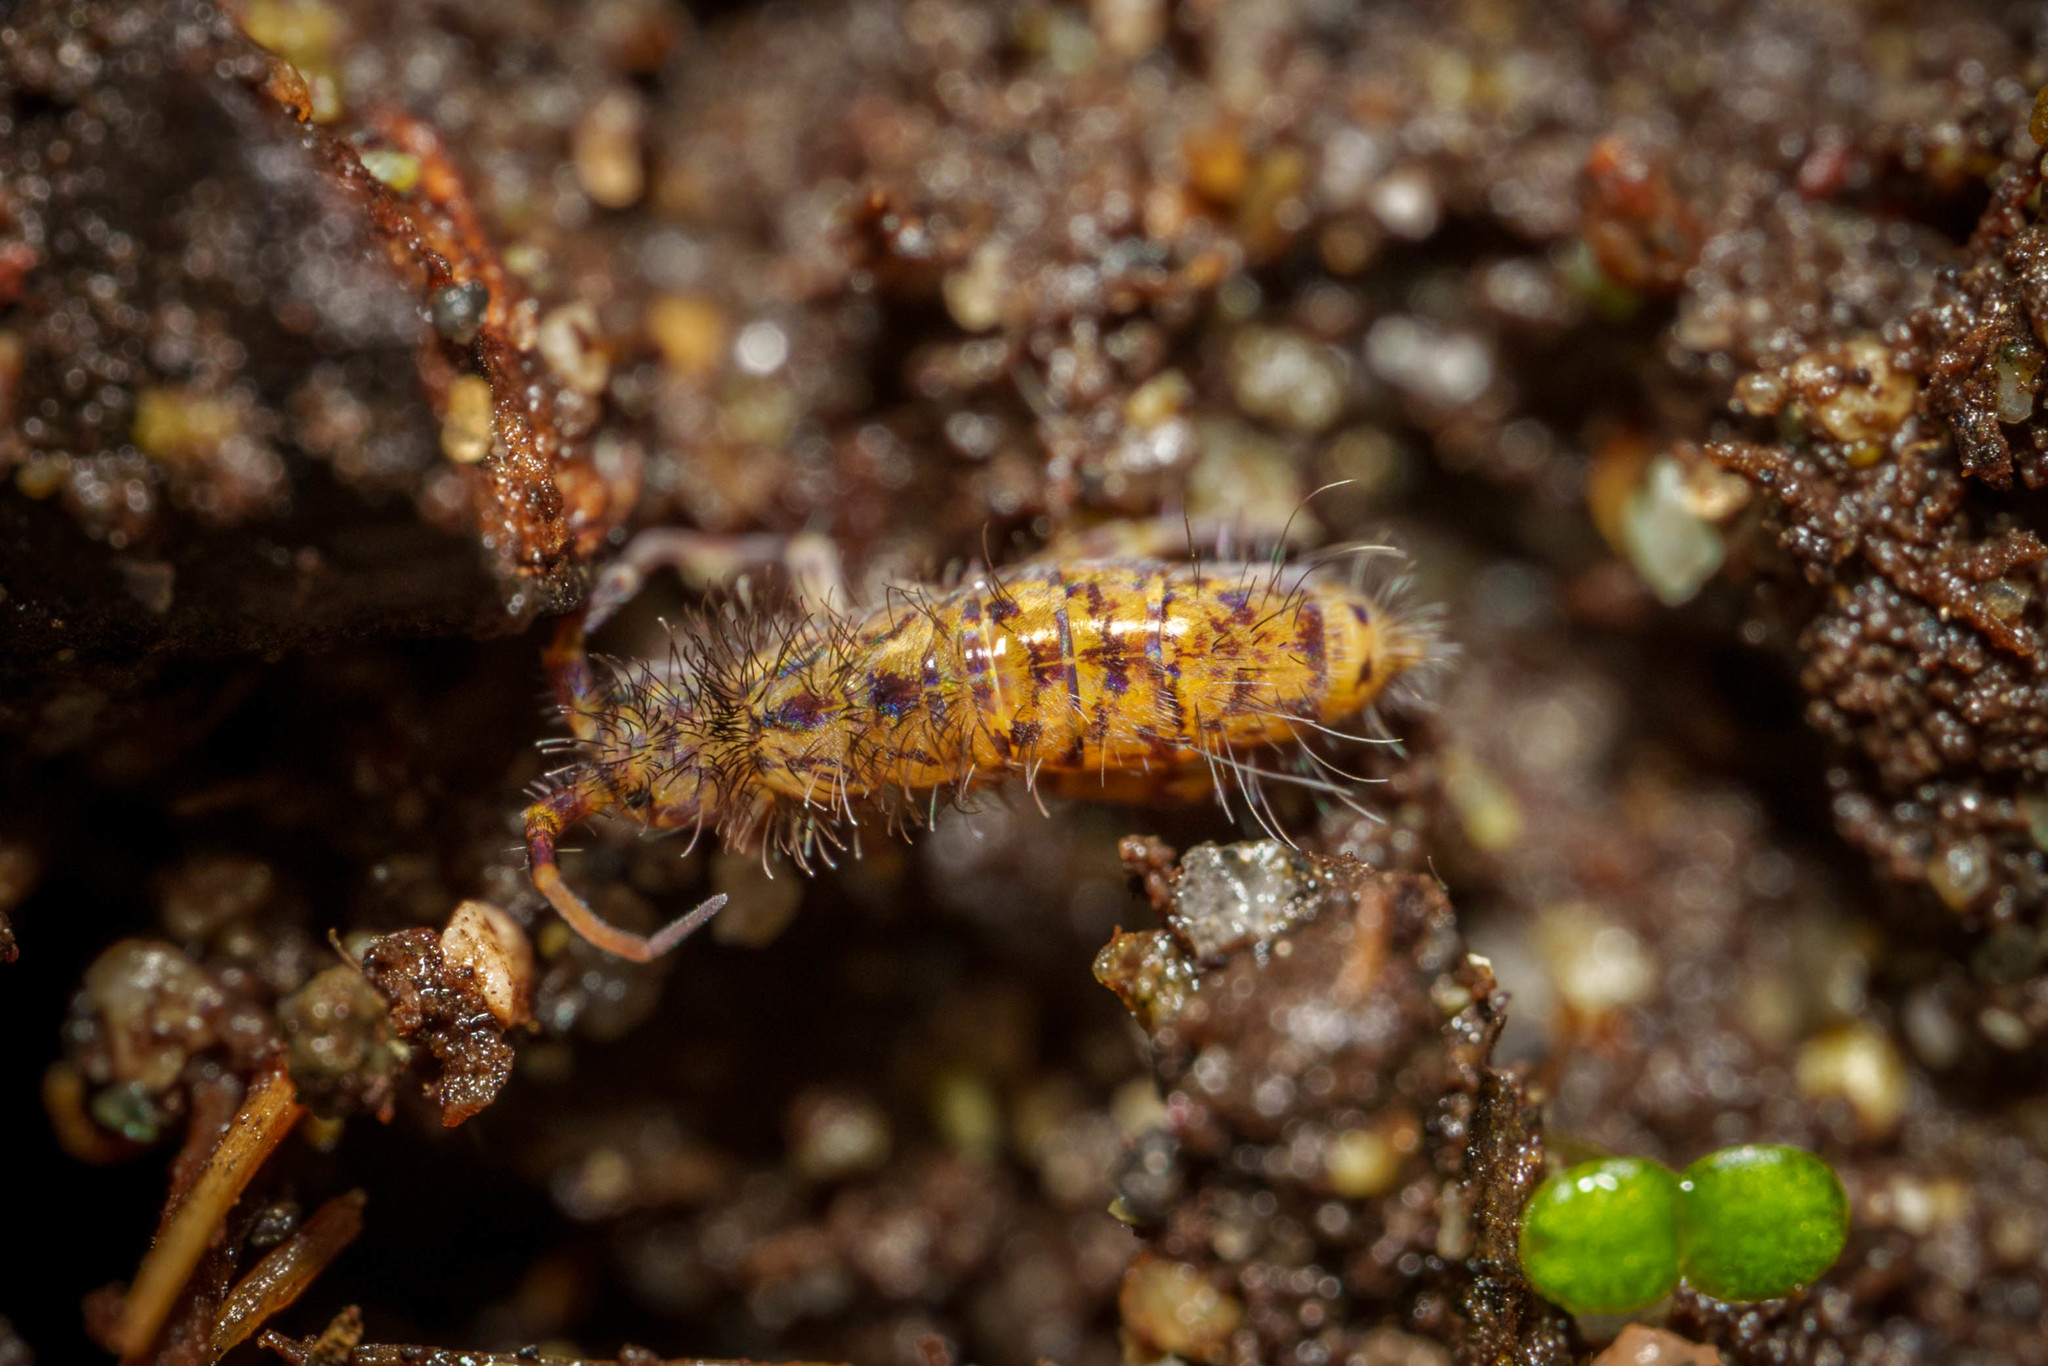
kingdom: Animalia
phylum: Arthropoda
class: Collembola
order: Entomobryomorpha
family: Orchesellidae
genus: Orchesella
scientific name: Orchesella villosa
